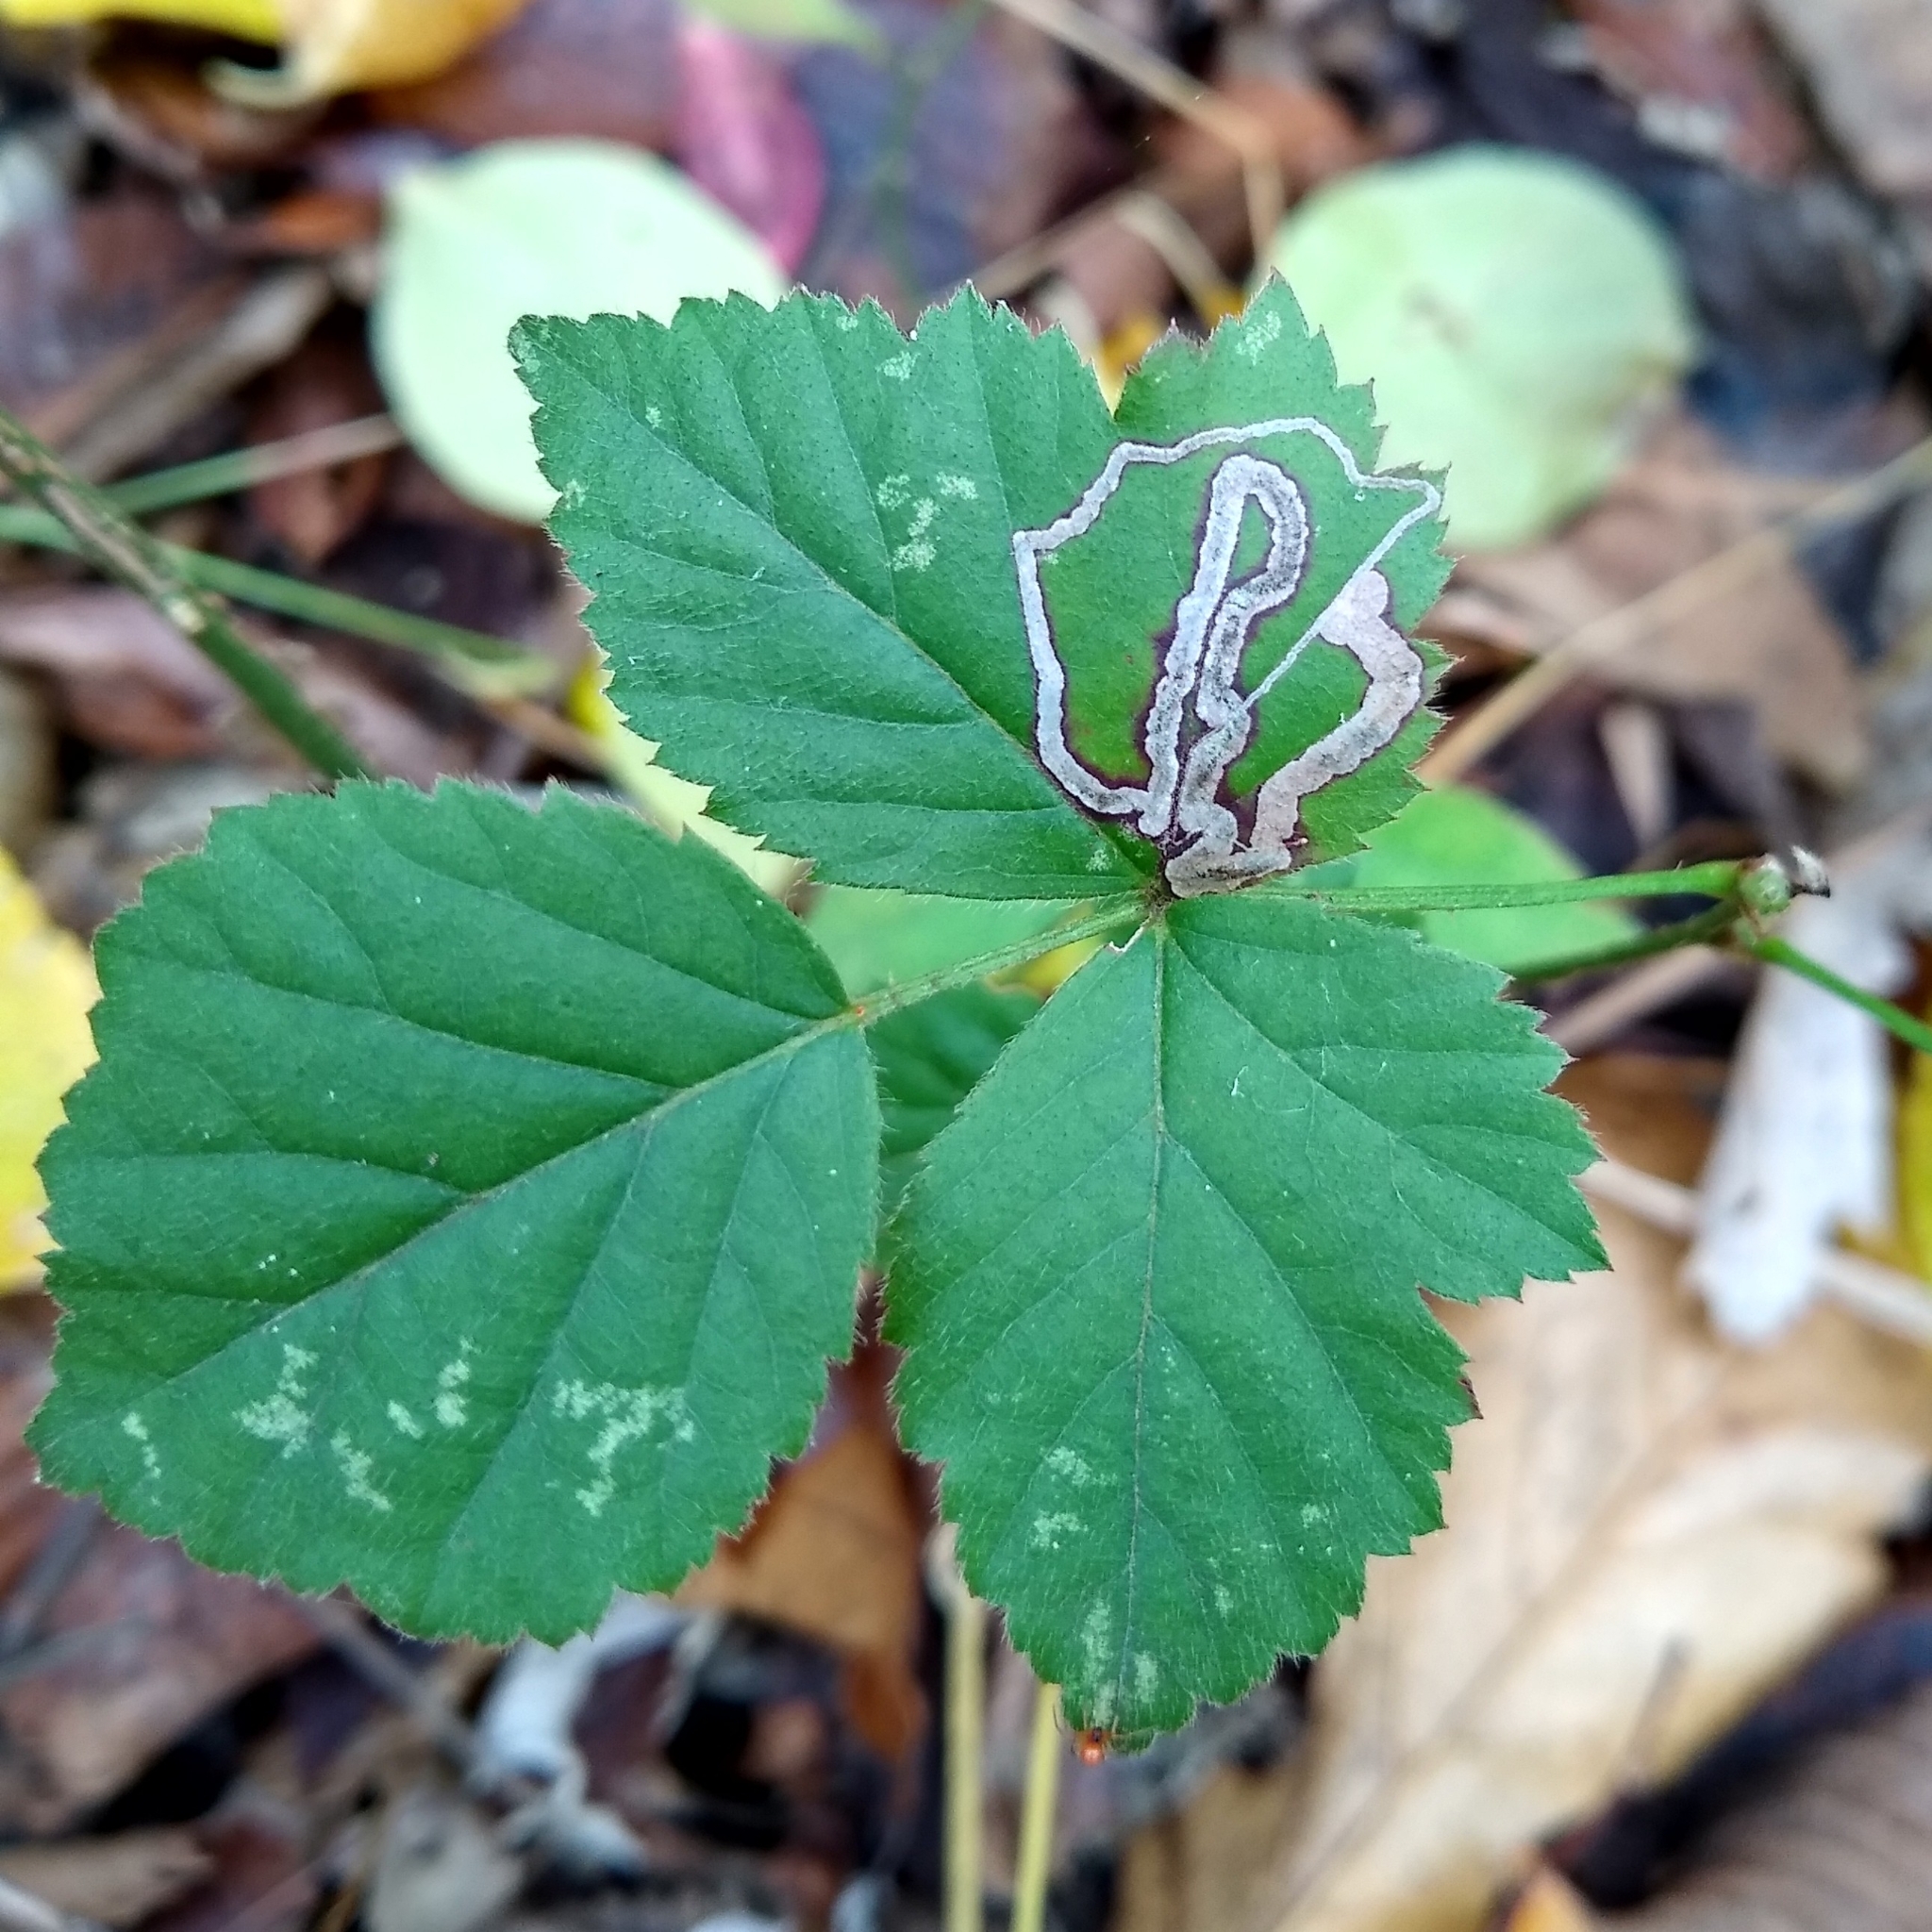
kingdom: Animalia
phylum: Arthropoda
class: Insecta
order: Lepidoptera
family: Nepticulidae
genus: Stigmella
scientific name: Stigmella villosella
